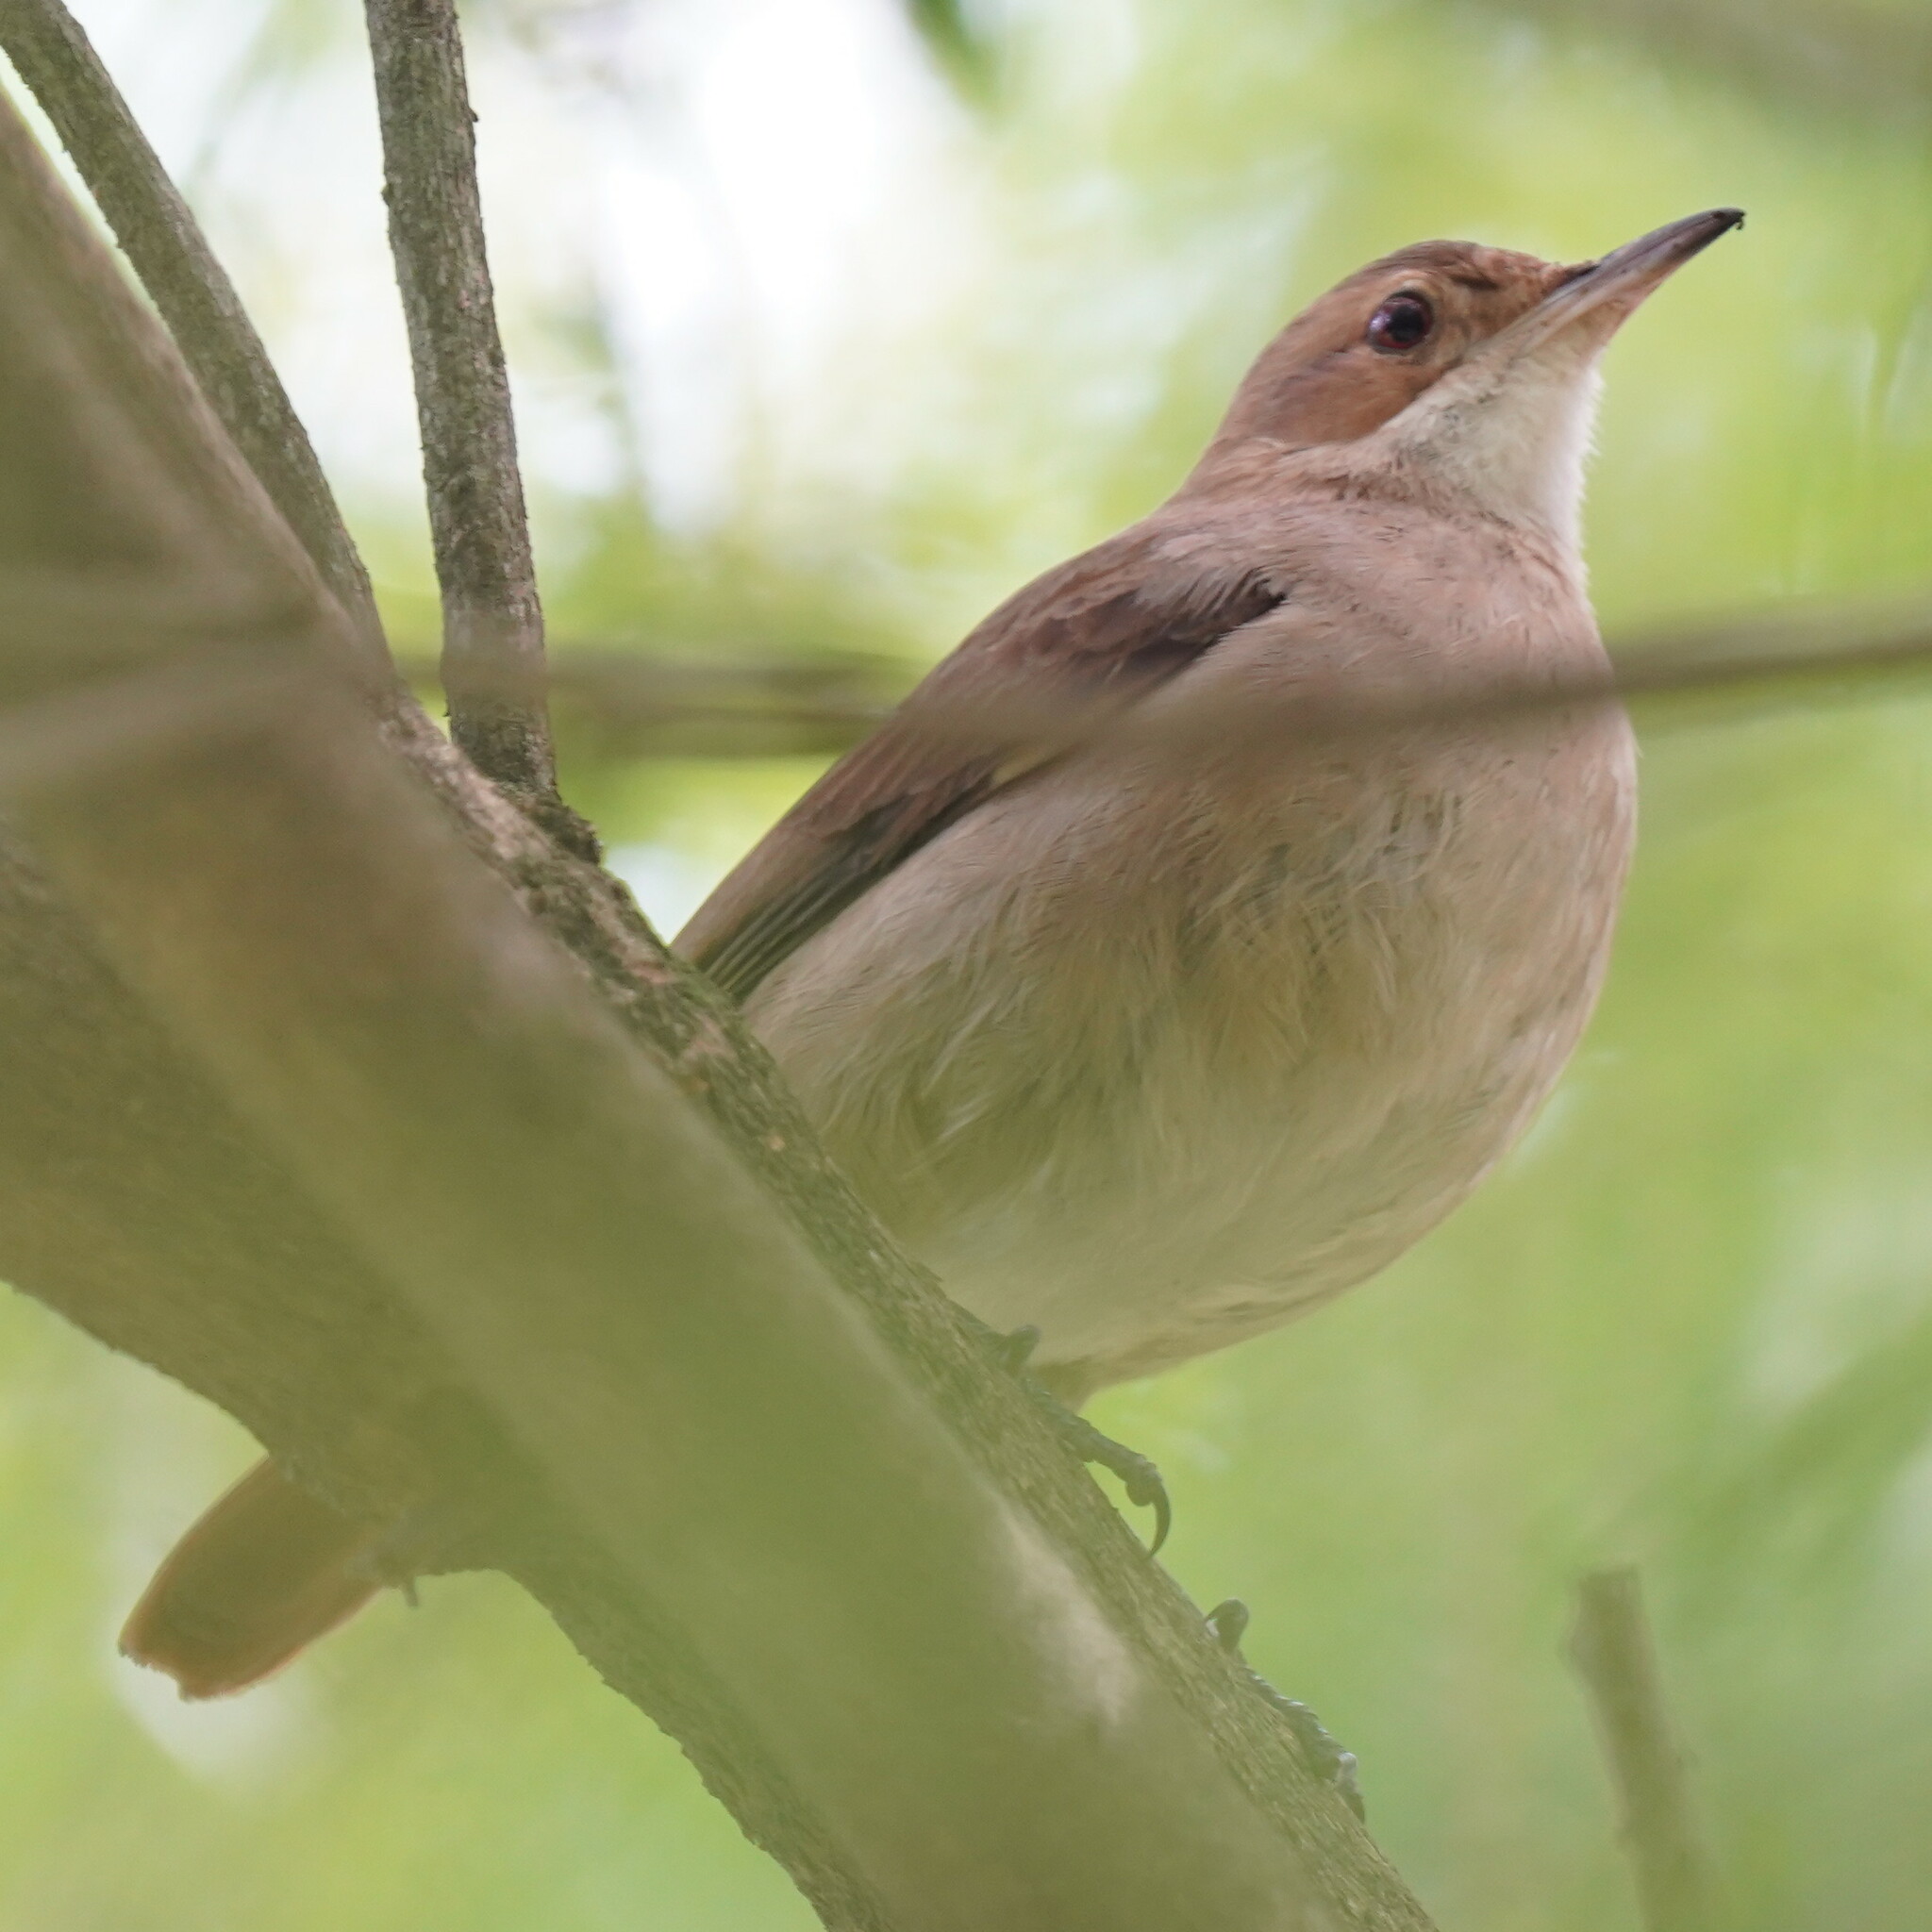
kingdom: Animalia
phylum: Chordata
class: Aves
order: Passeriformes
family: Furnariidae
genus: Furnarius
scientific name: Furnarius rufus
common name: Rufous hornero
